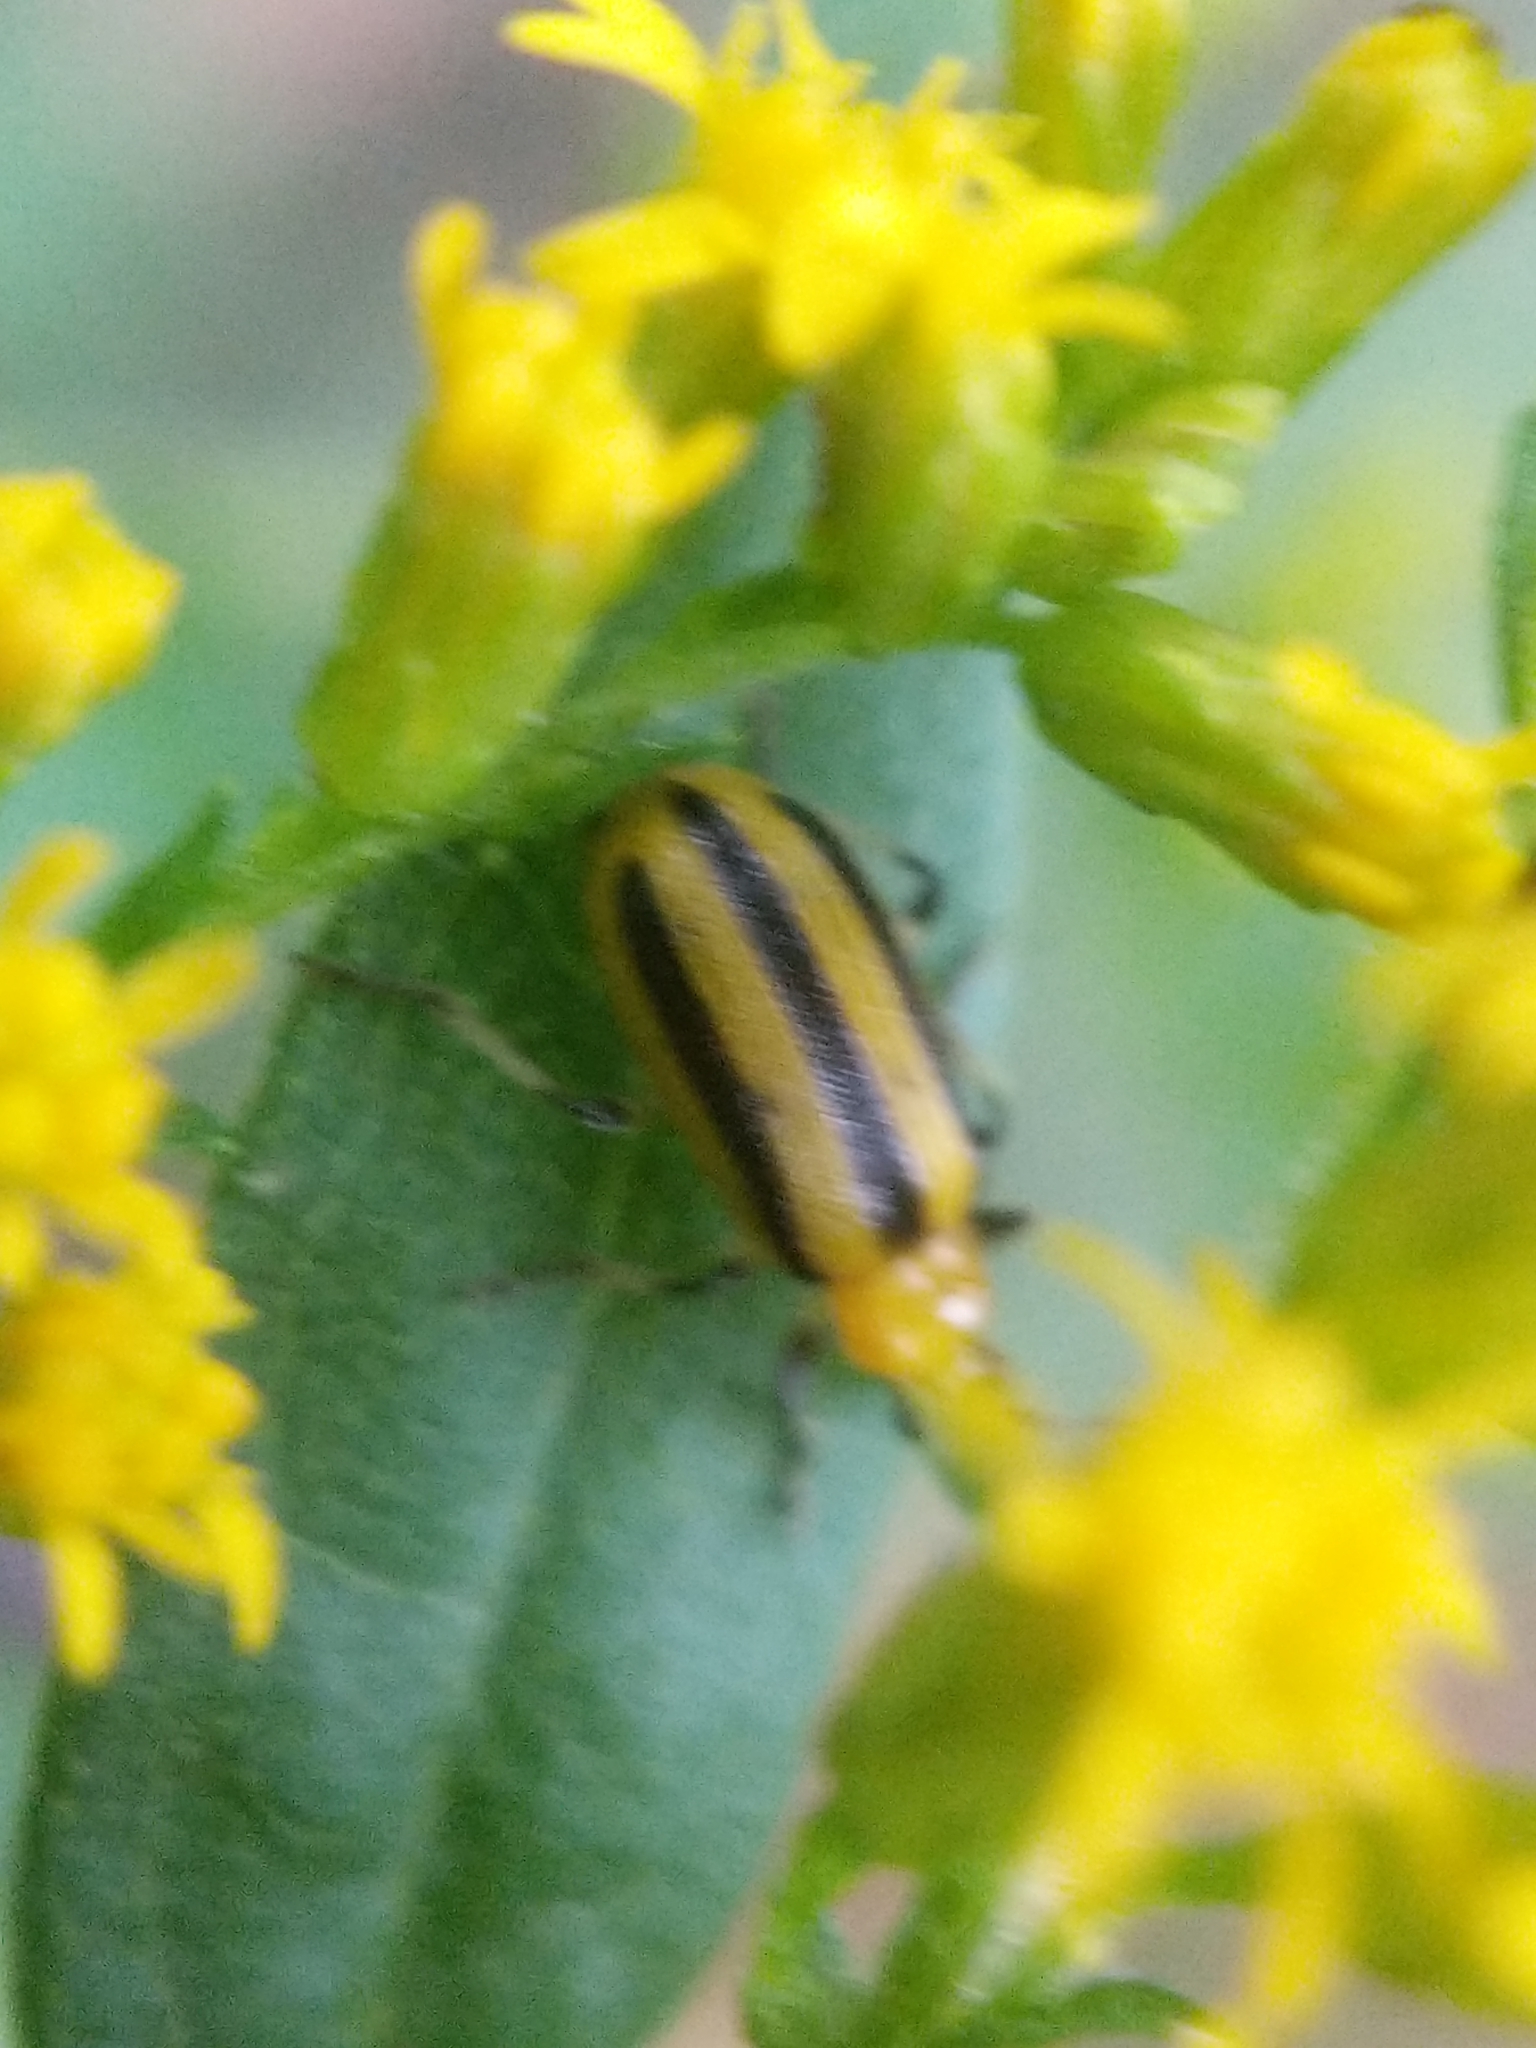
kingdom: Animalia
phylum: Arthropoda
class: Insecta
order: Coleoptera
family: Chrysomelidae
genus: Acalymma
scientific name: Acalymma vittatum
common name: Striped cucumber beetle
